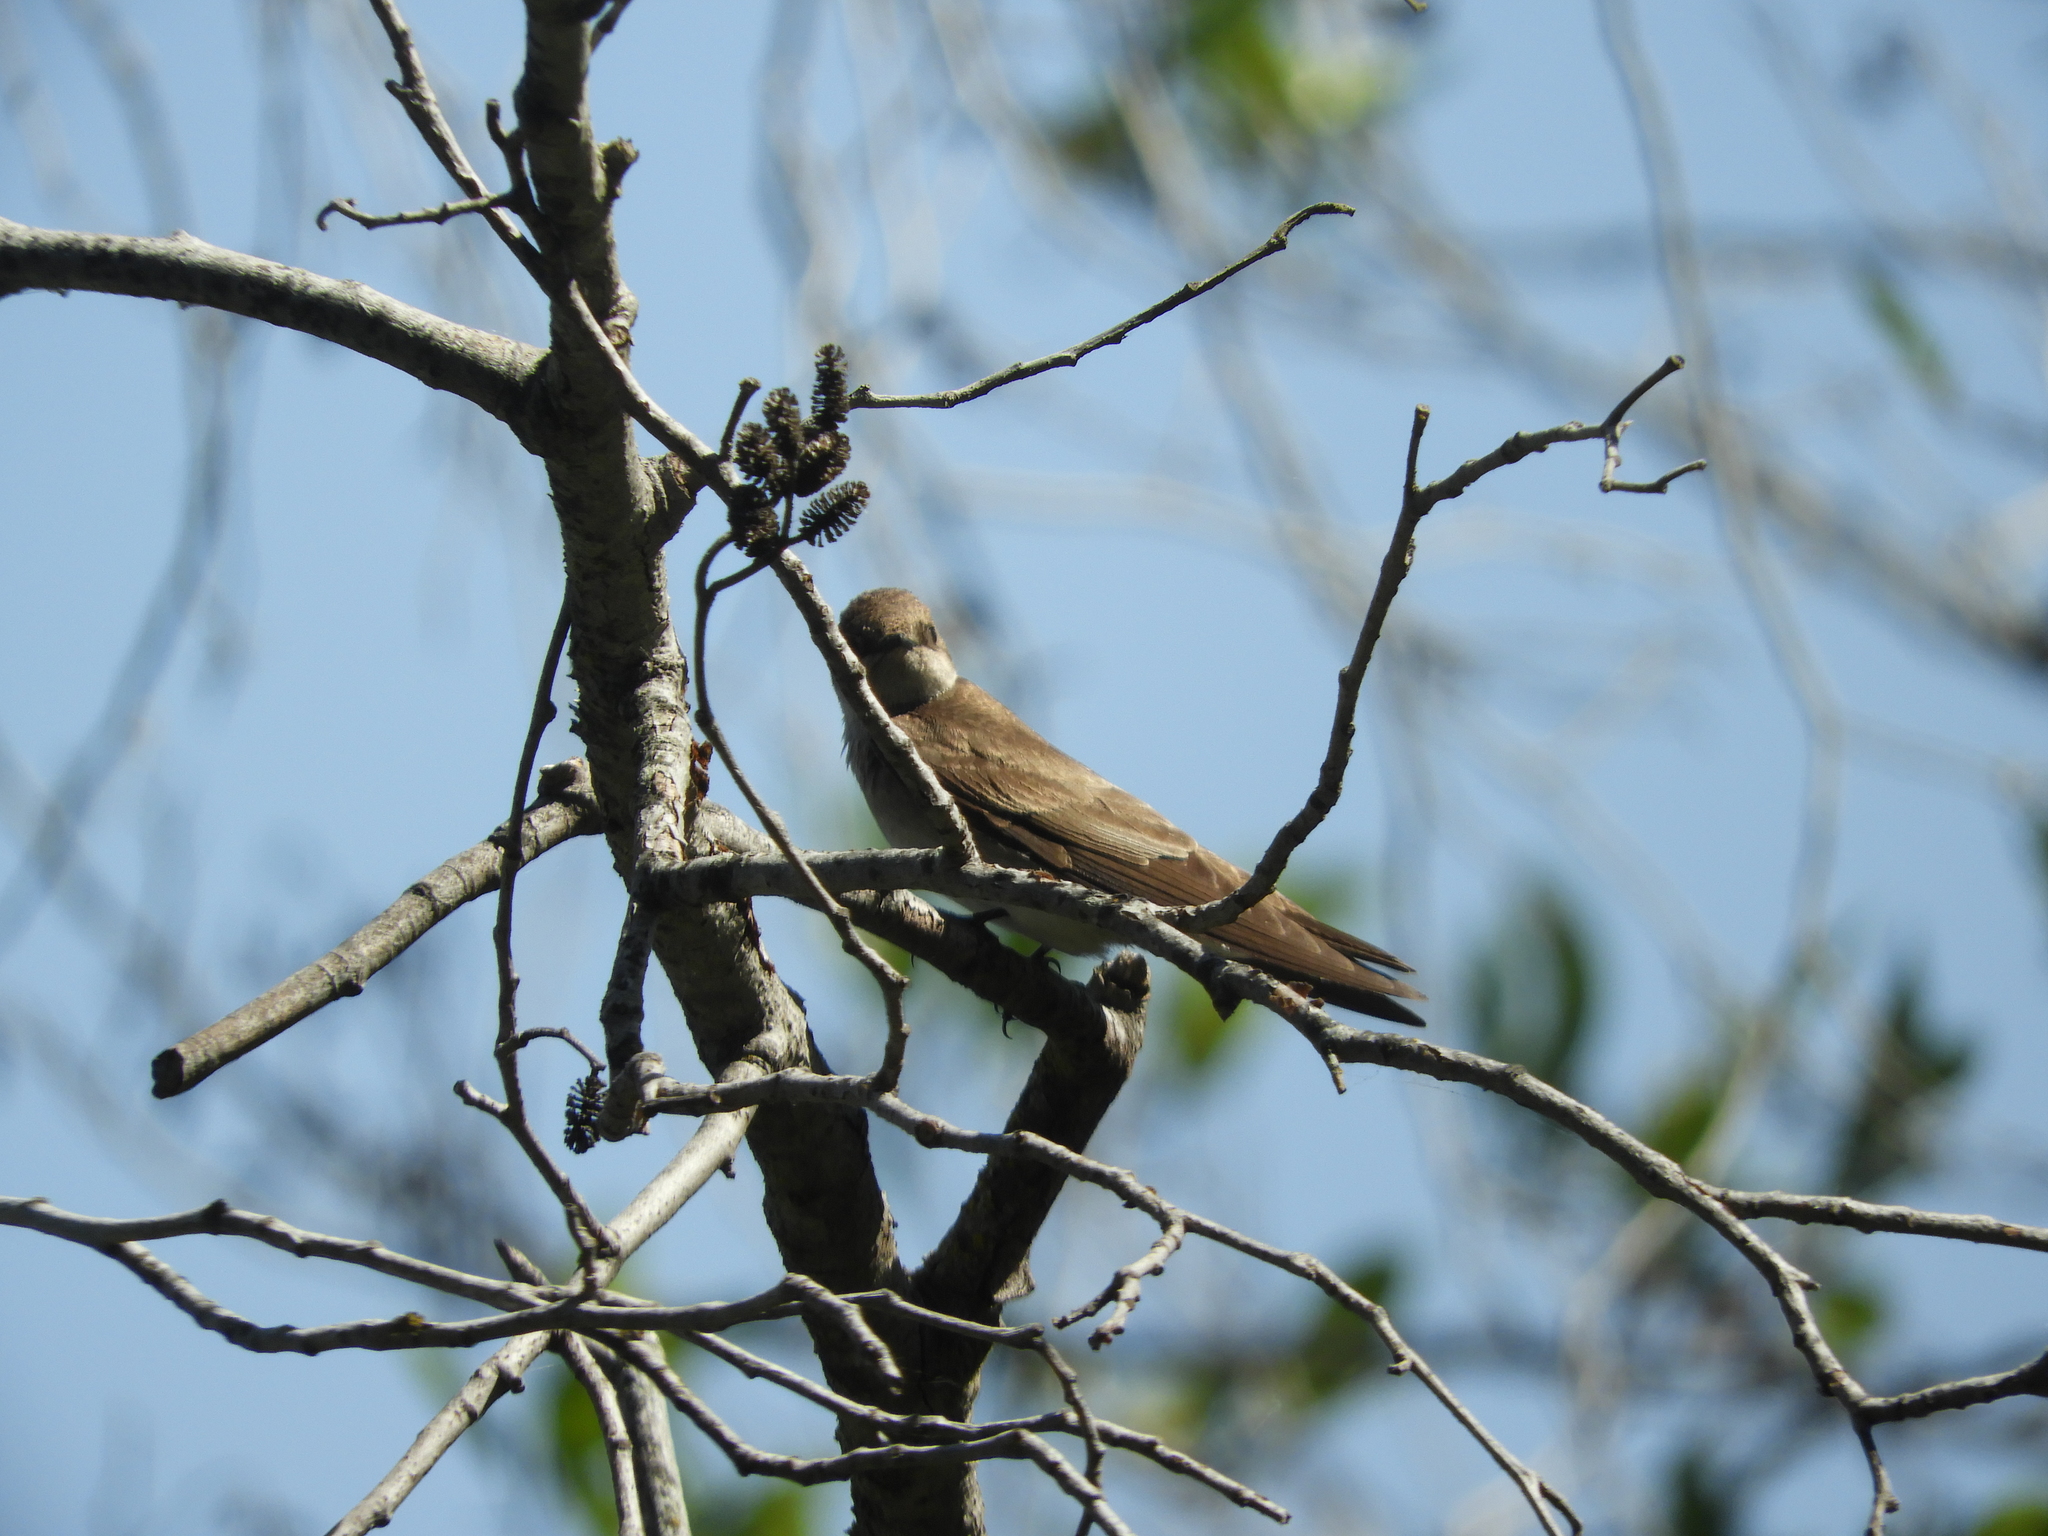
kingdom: Animalia
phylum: Chordata
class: Aves
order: Passeriformes
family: Hirundinidae
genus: Stelgidopteryx
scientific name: Stelgidopteryx serripennis
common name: Northern rough-winged swallow
